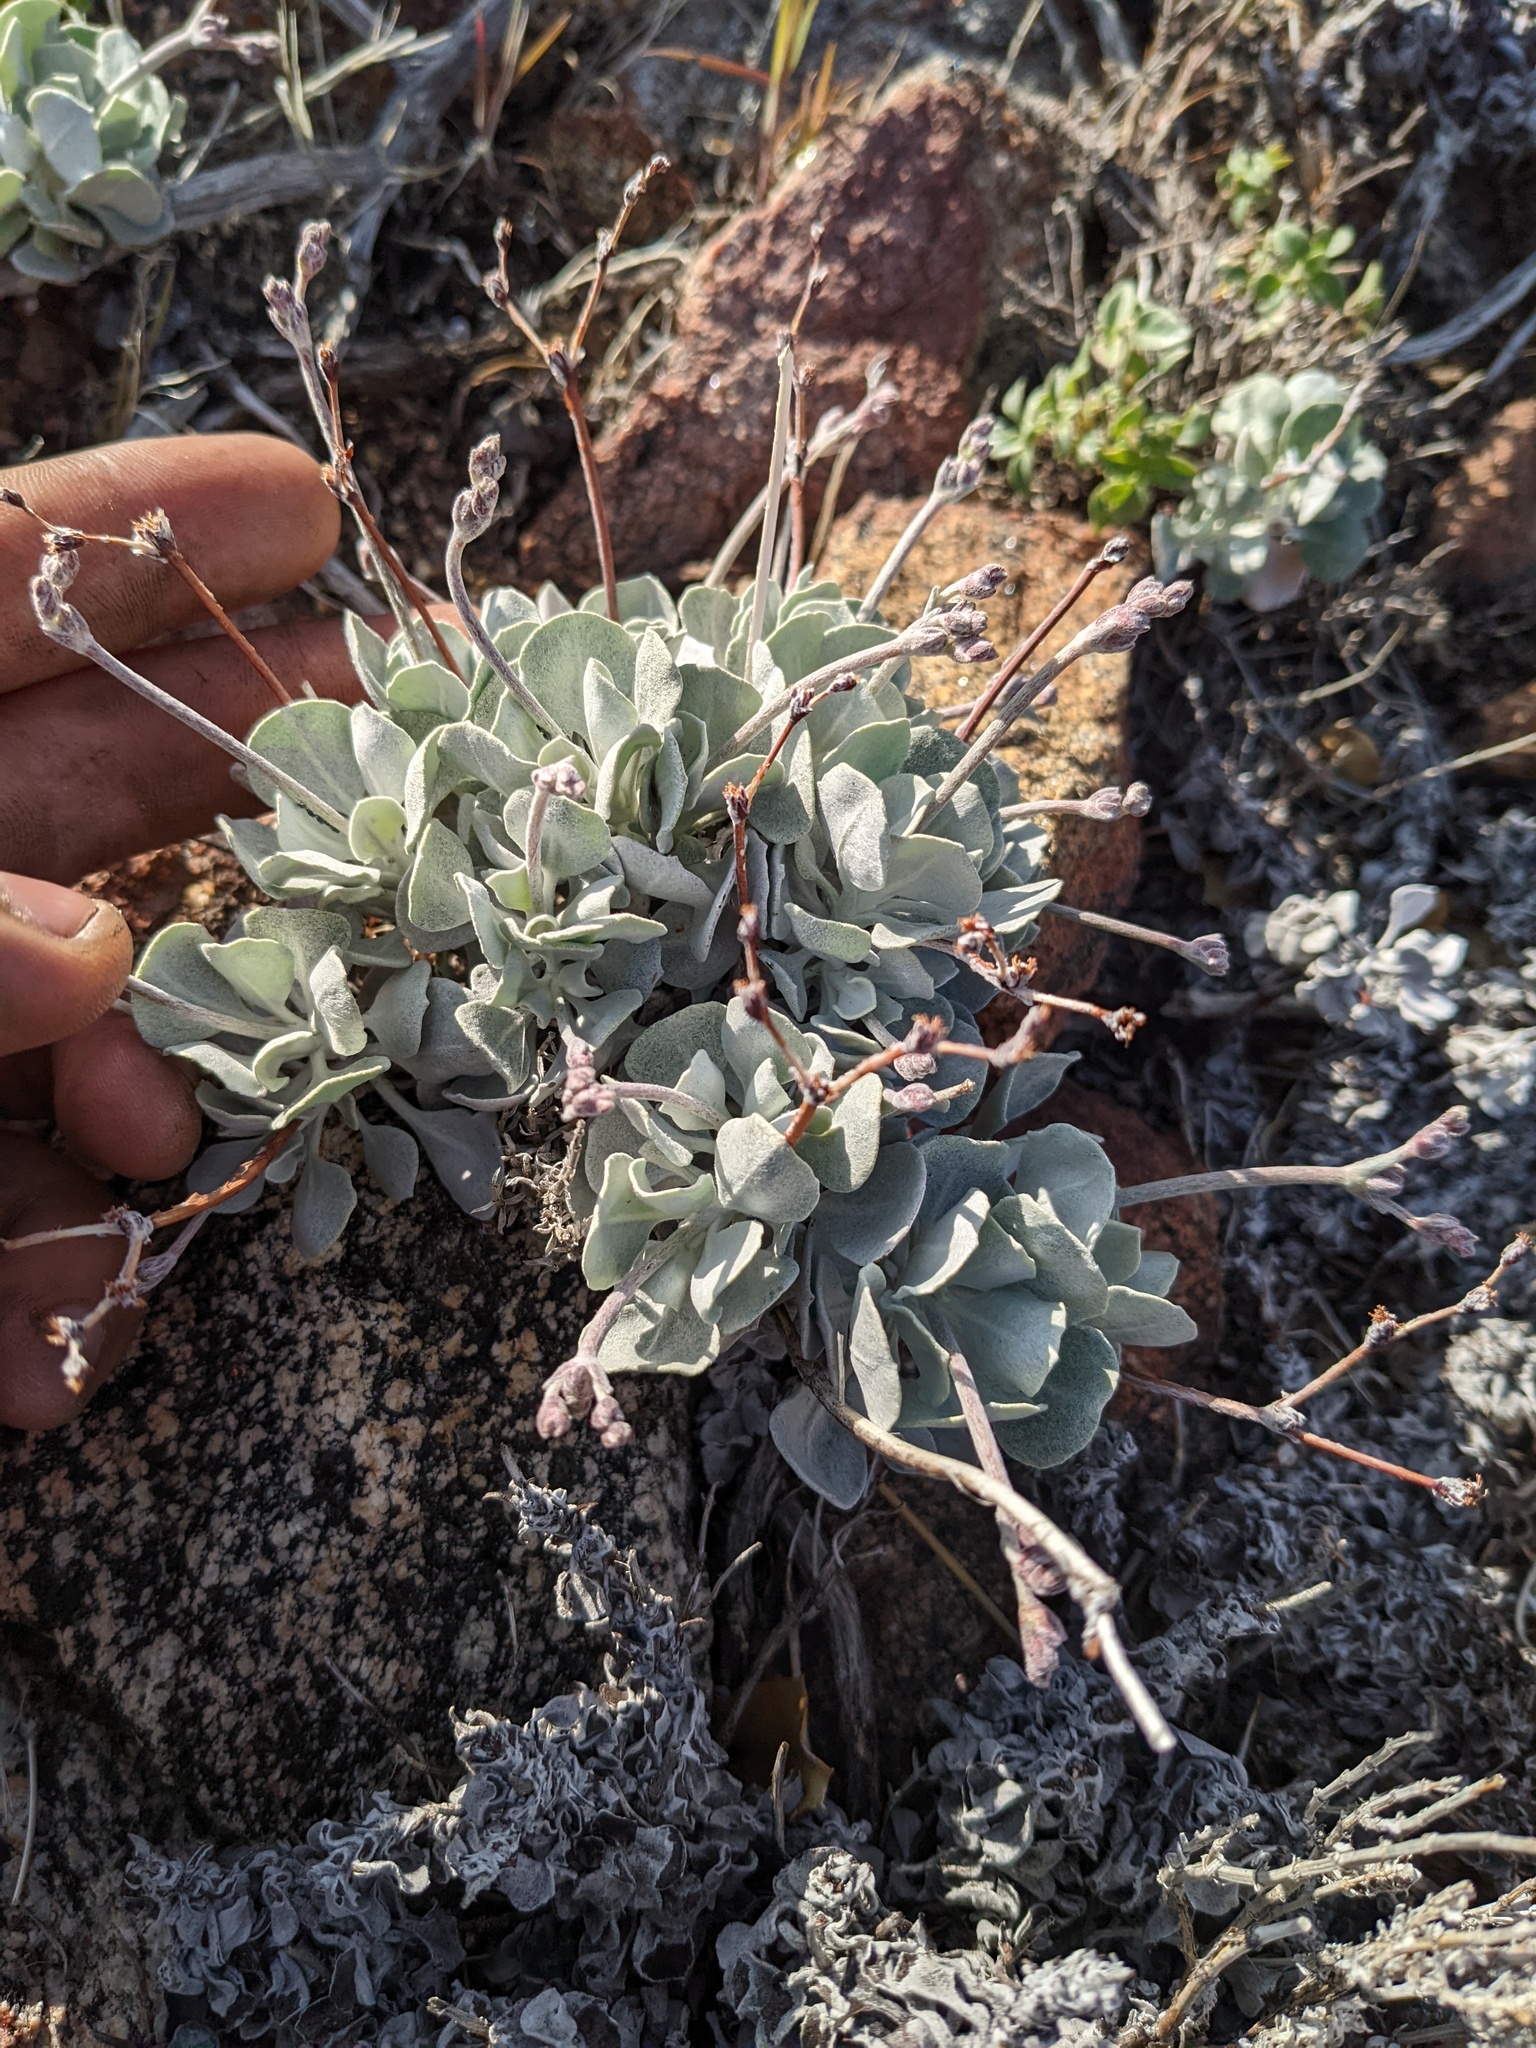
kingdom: Plantae
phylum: Tracheophyta
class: Magnoliopsida
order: Caryophyllales
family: Polygonaceae
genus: Eriogonum
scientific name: Eriogonum saxatile
